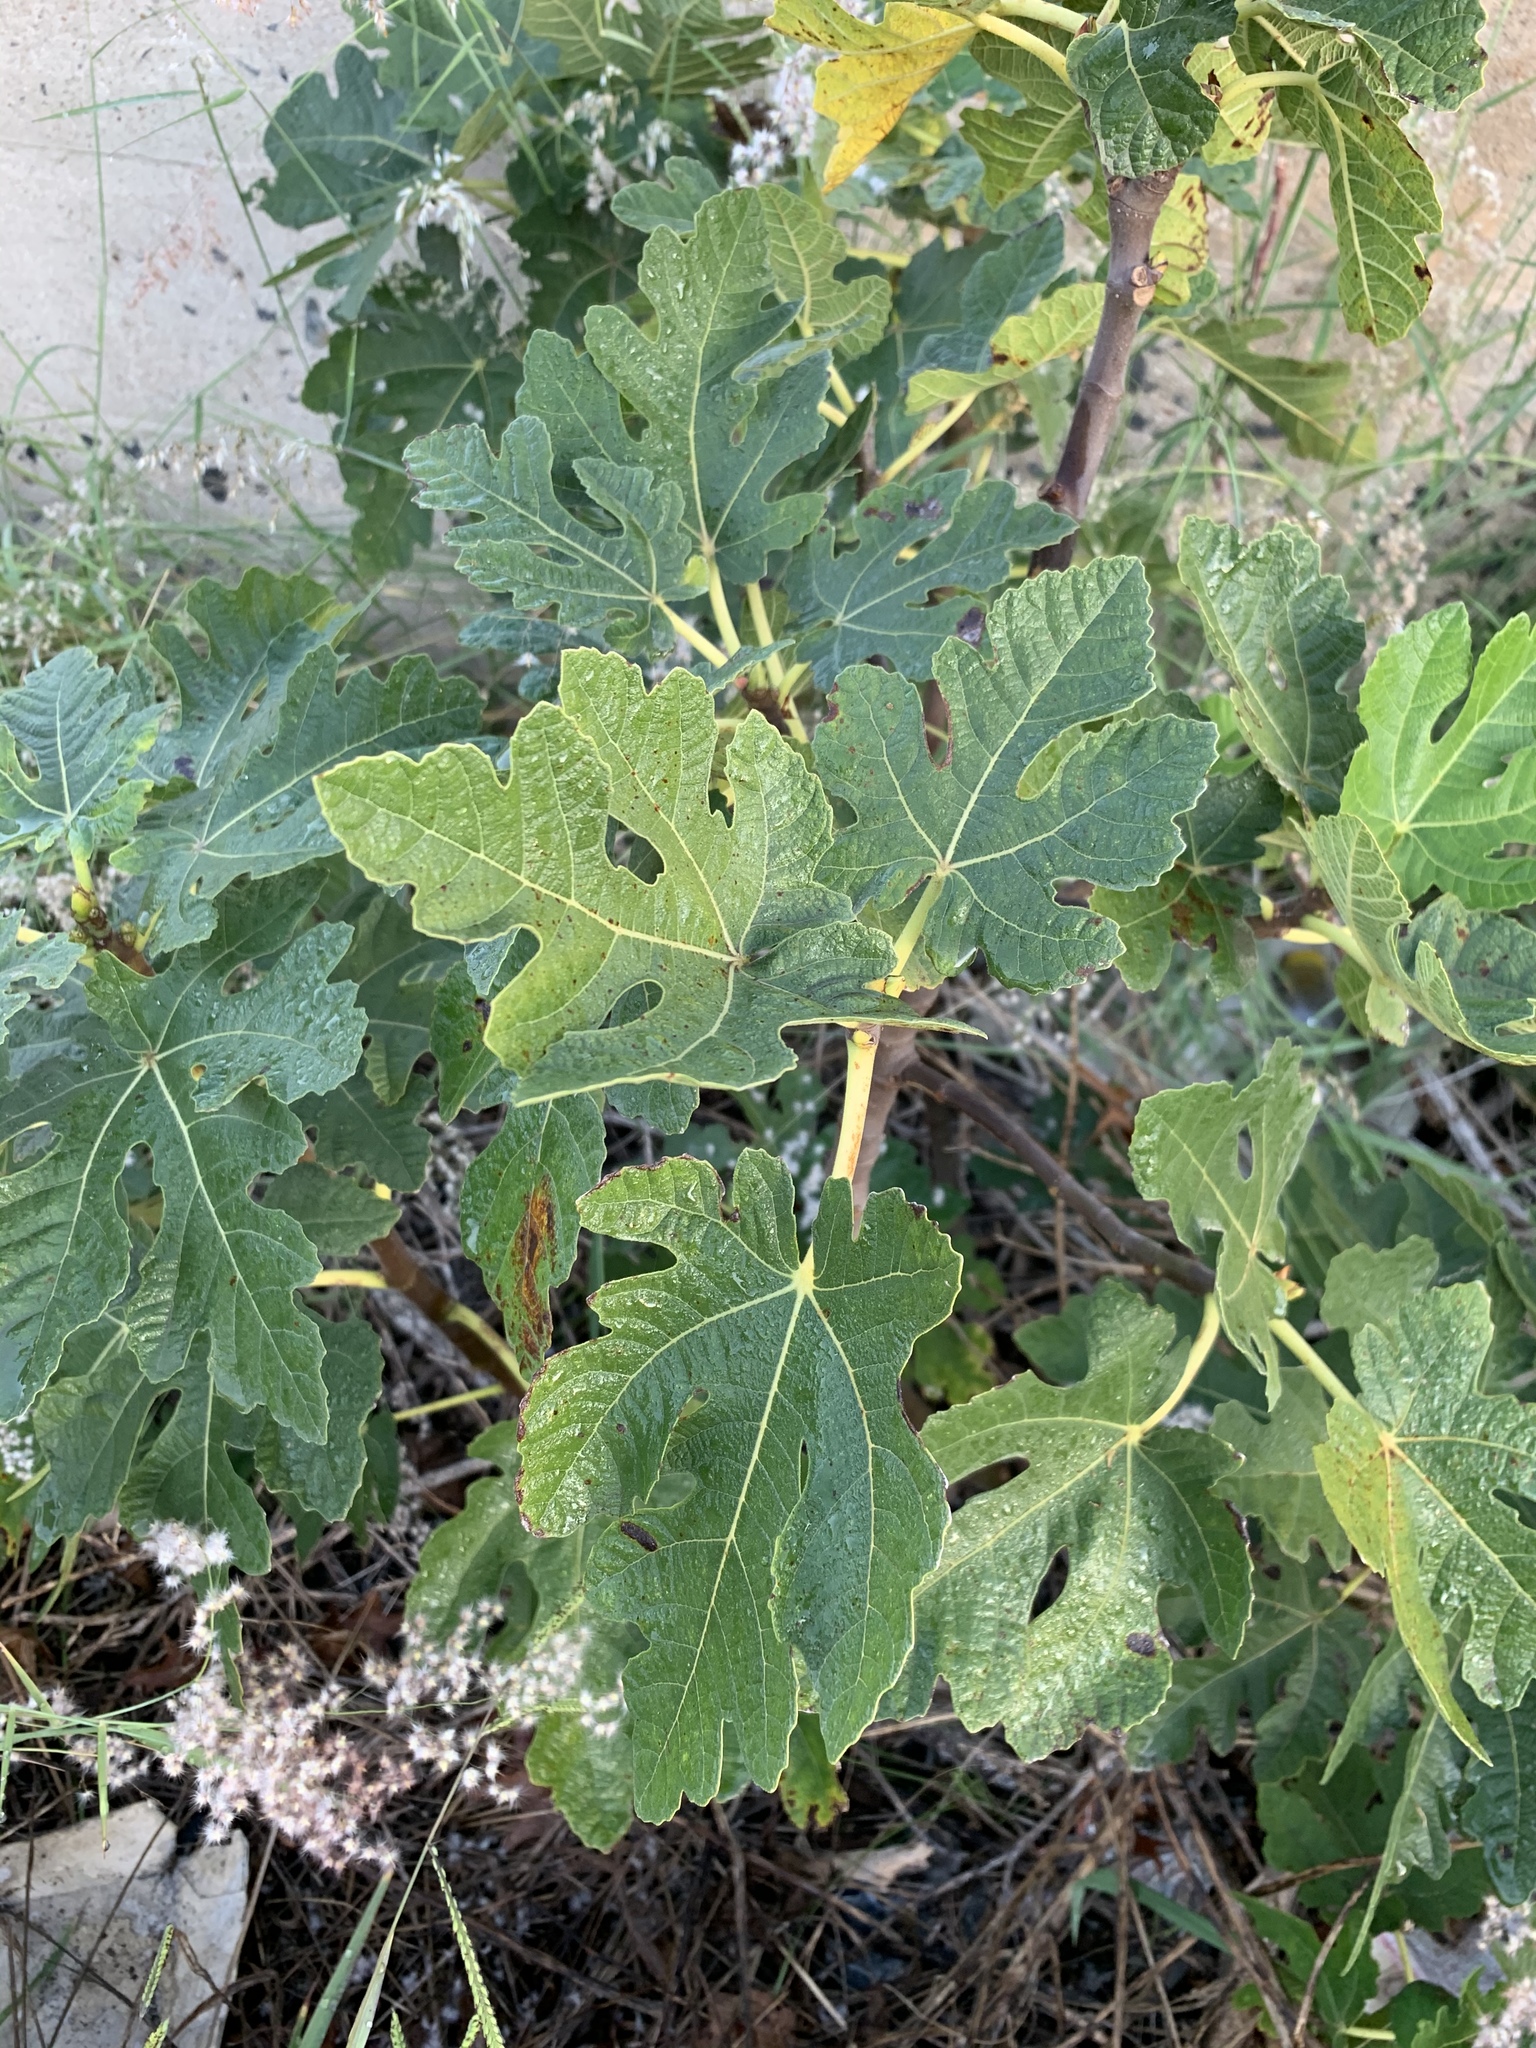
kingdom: Plantae
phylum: Tracheophyta
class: Magnoliopsida
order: Rosales
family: Moraceae
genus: Ficus
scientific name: Ficus carica
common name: Fig
